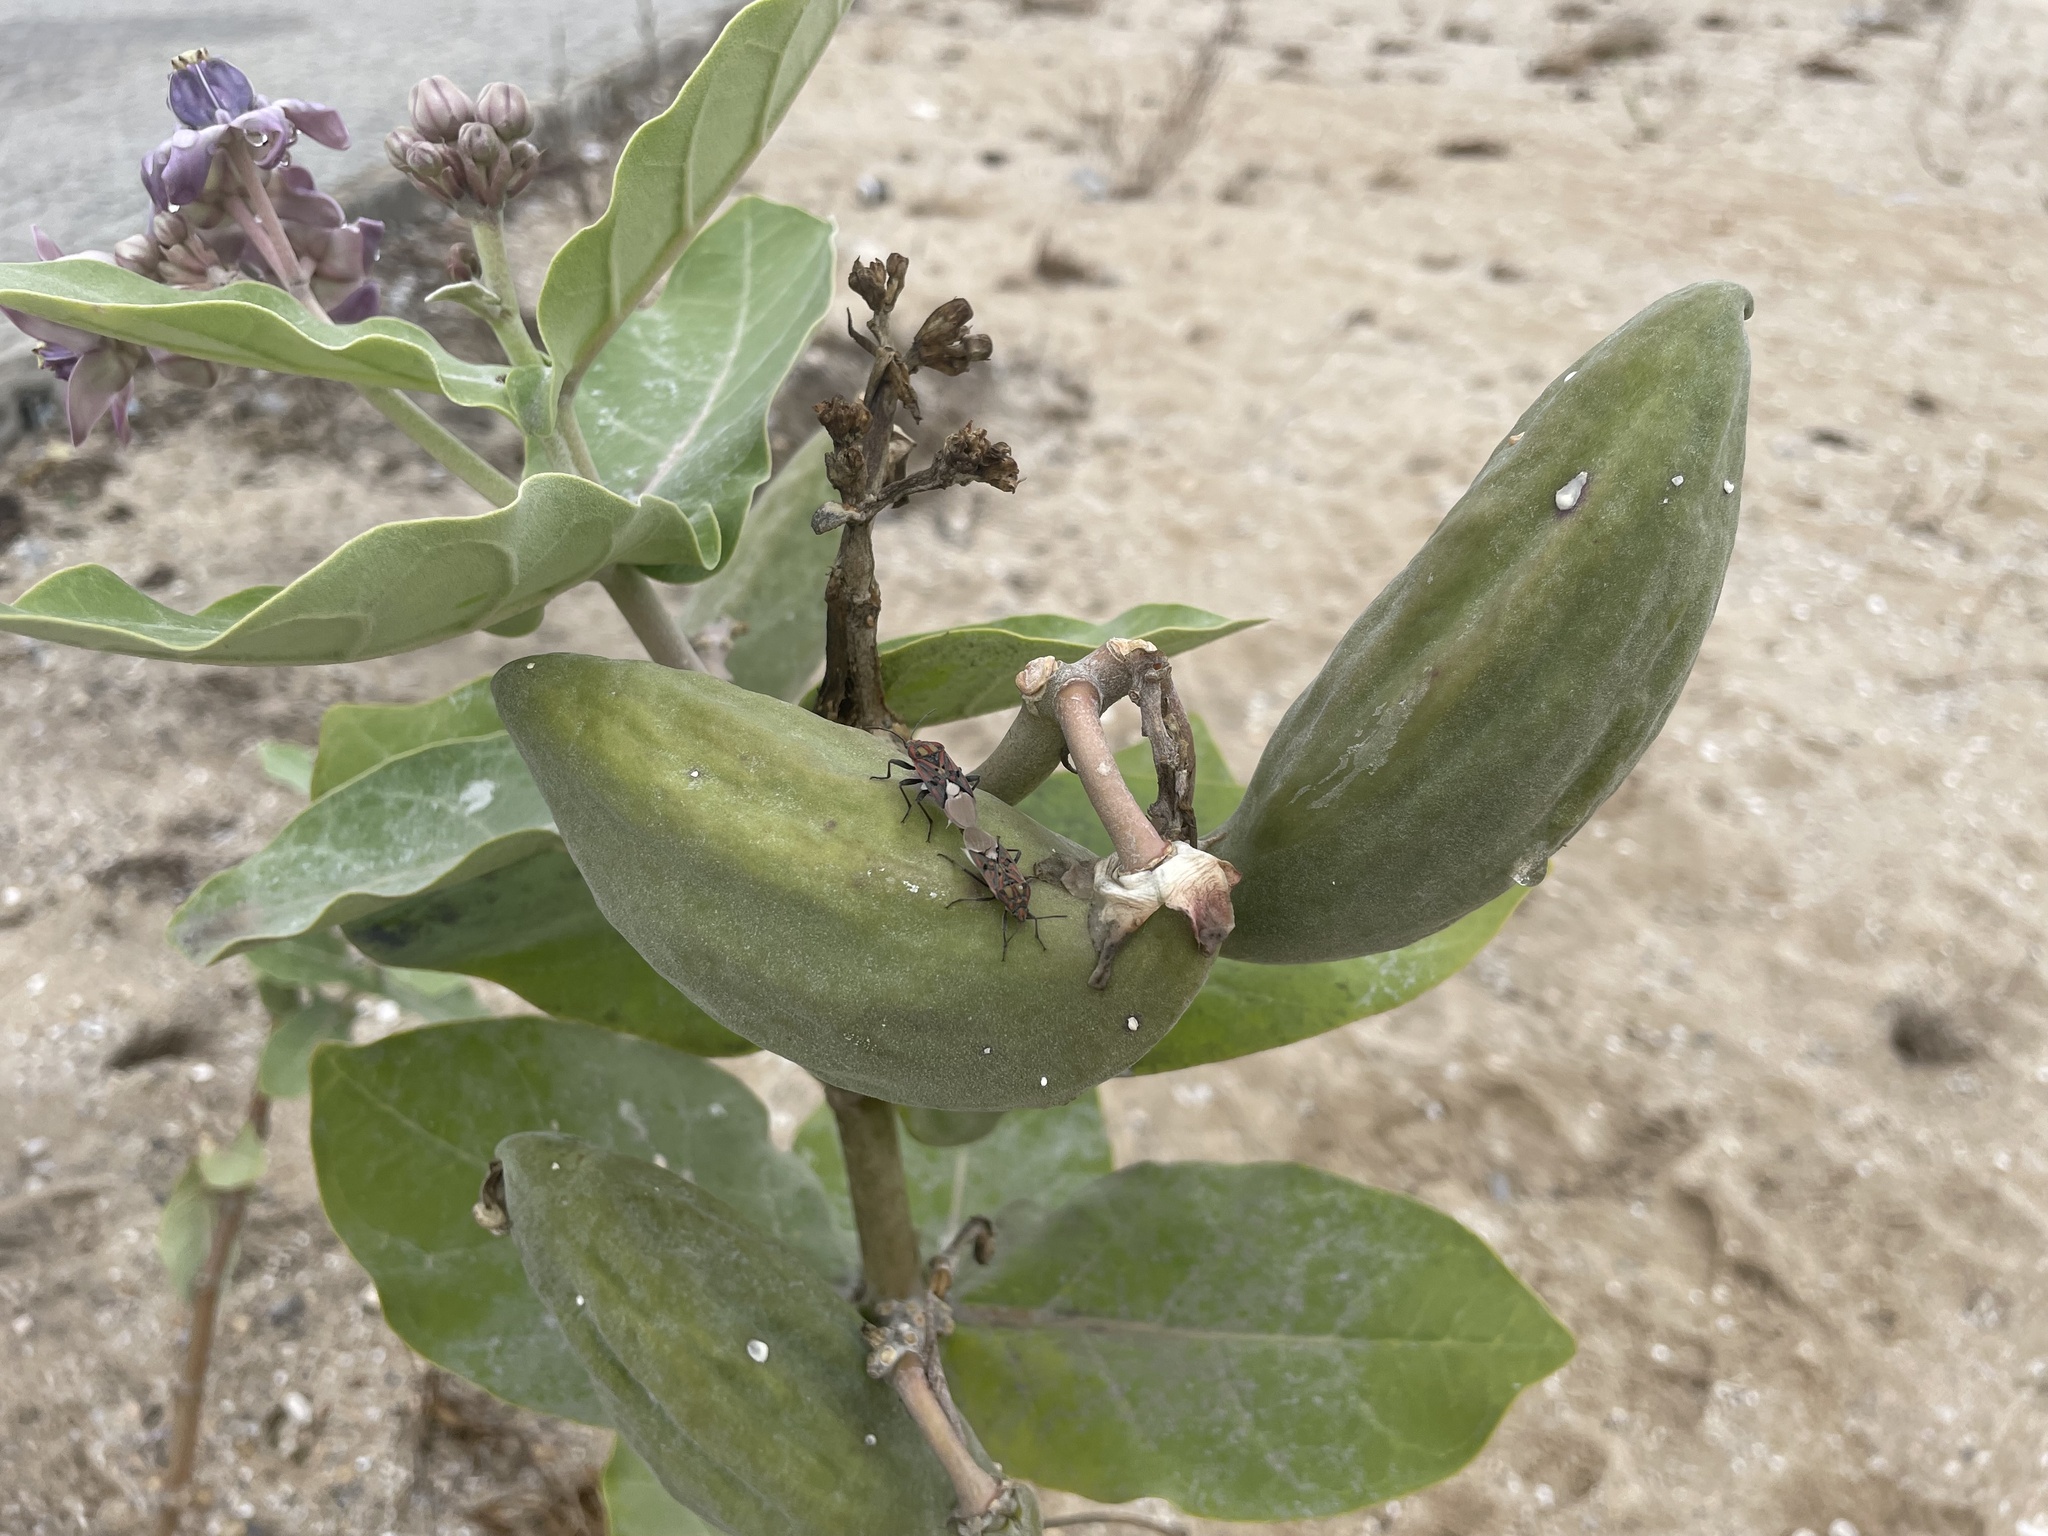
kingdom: Plantae
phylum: Tracheophyta
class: Magnoliopsida
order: Gentianales
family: Apocynaceae
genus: Calotropis
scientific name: Calotropis gigantea
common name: Crown flower
